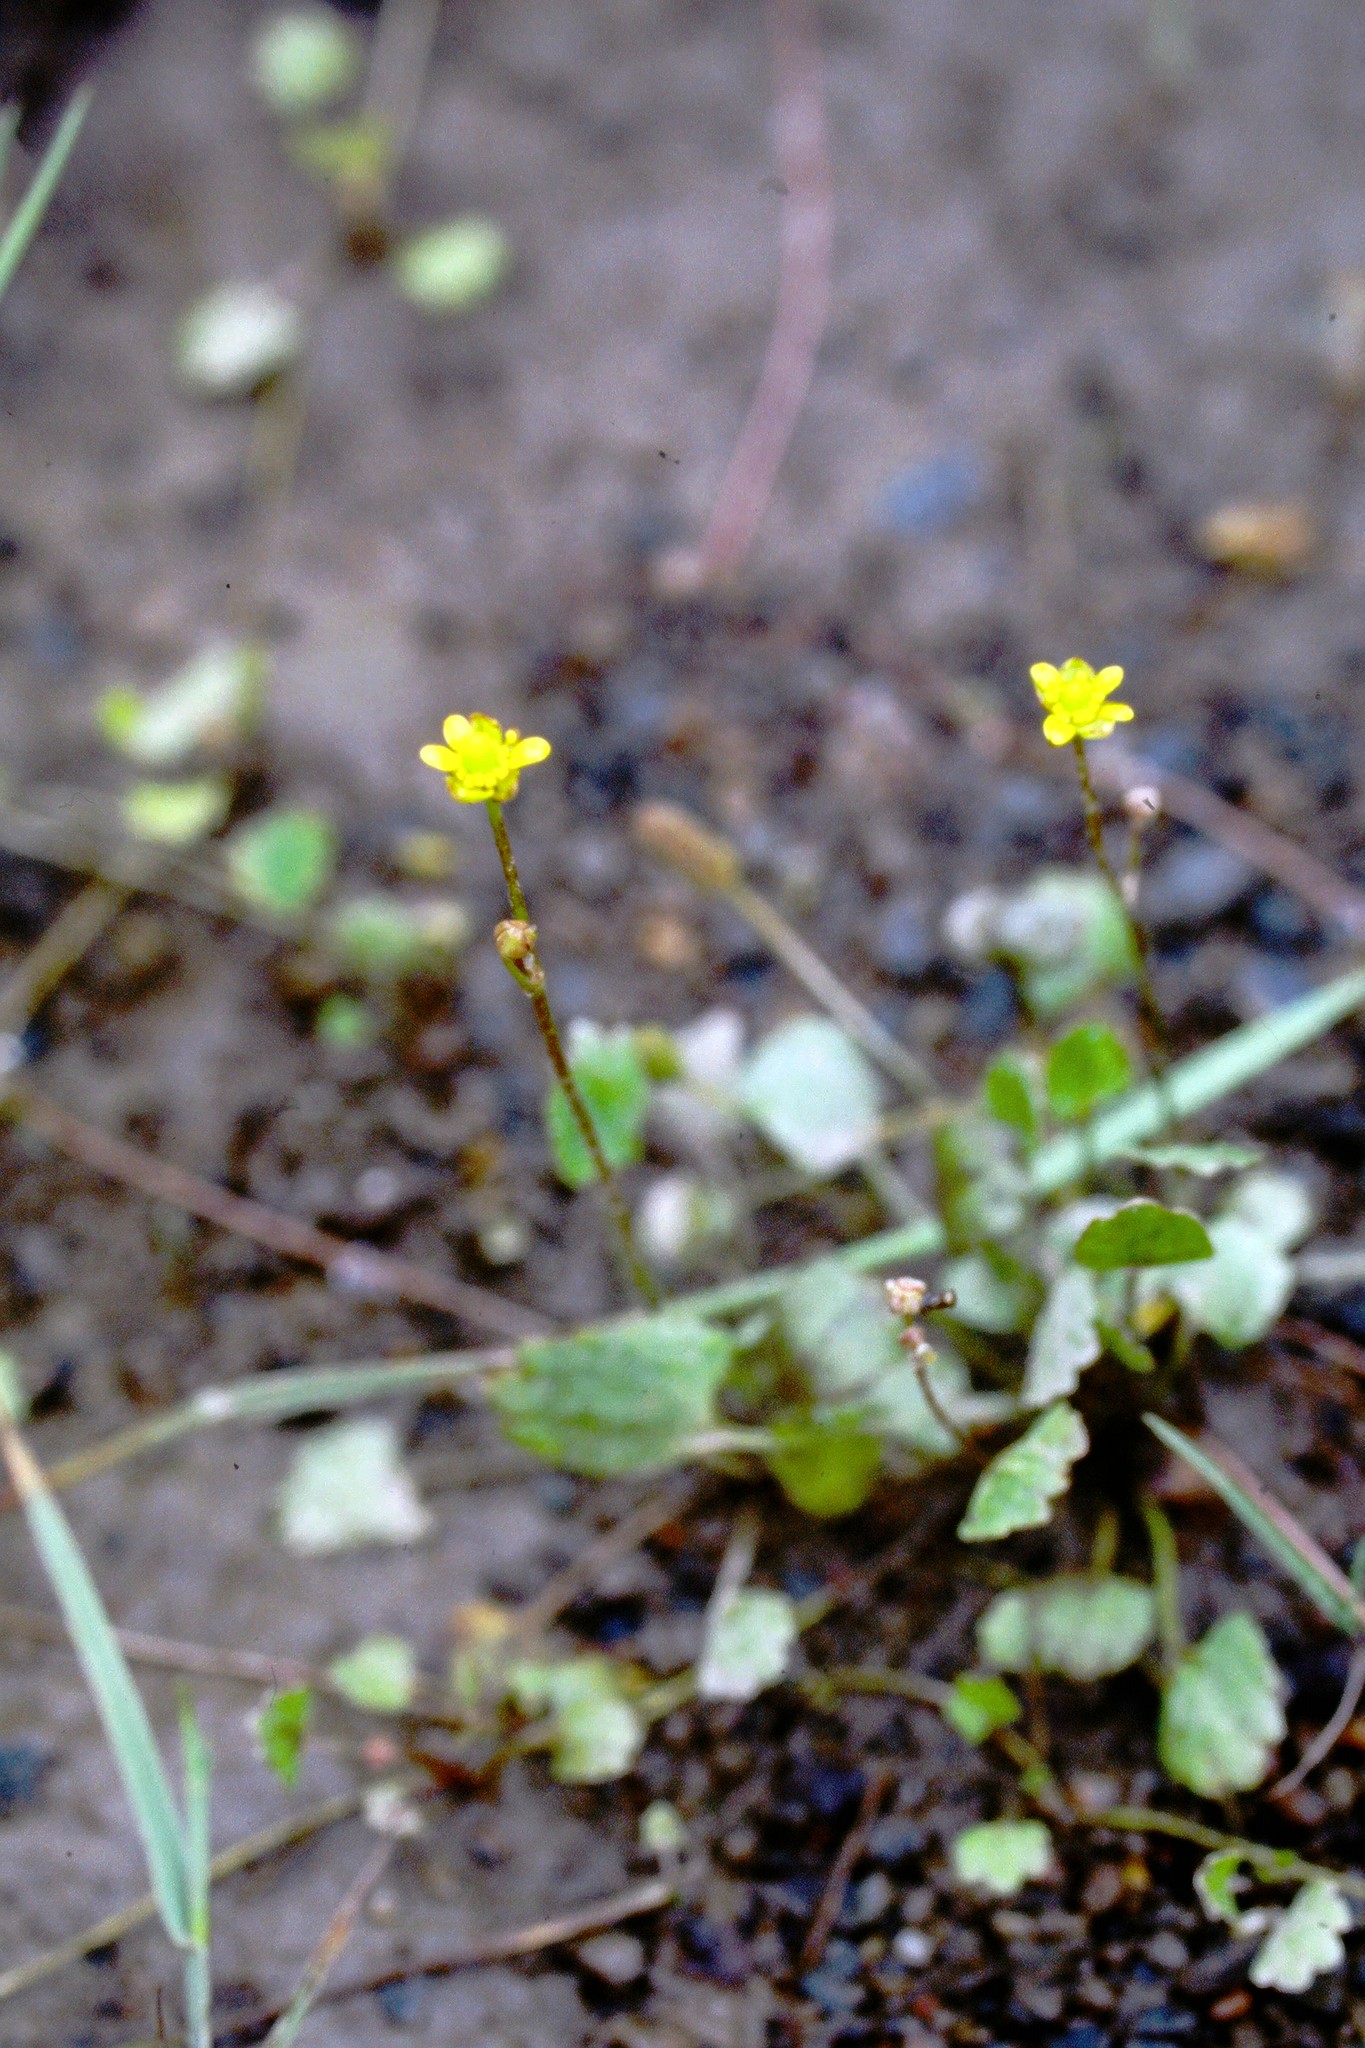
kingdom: Plantae
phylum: Tracheophyta
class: Magnoliopsida
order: Ranunculales
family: Ranunculaceae
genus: Halerpestes
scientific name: Halerpestes cymbalaria
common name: Seaside crowfoot
